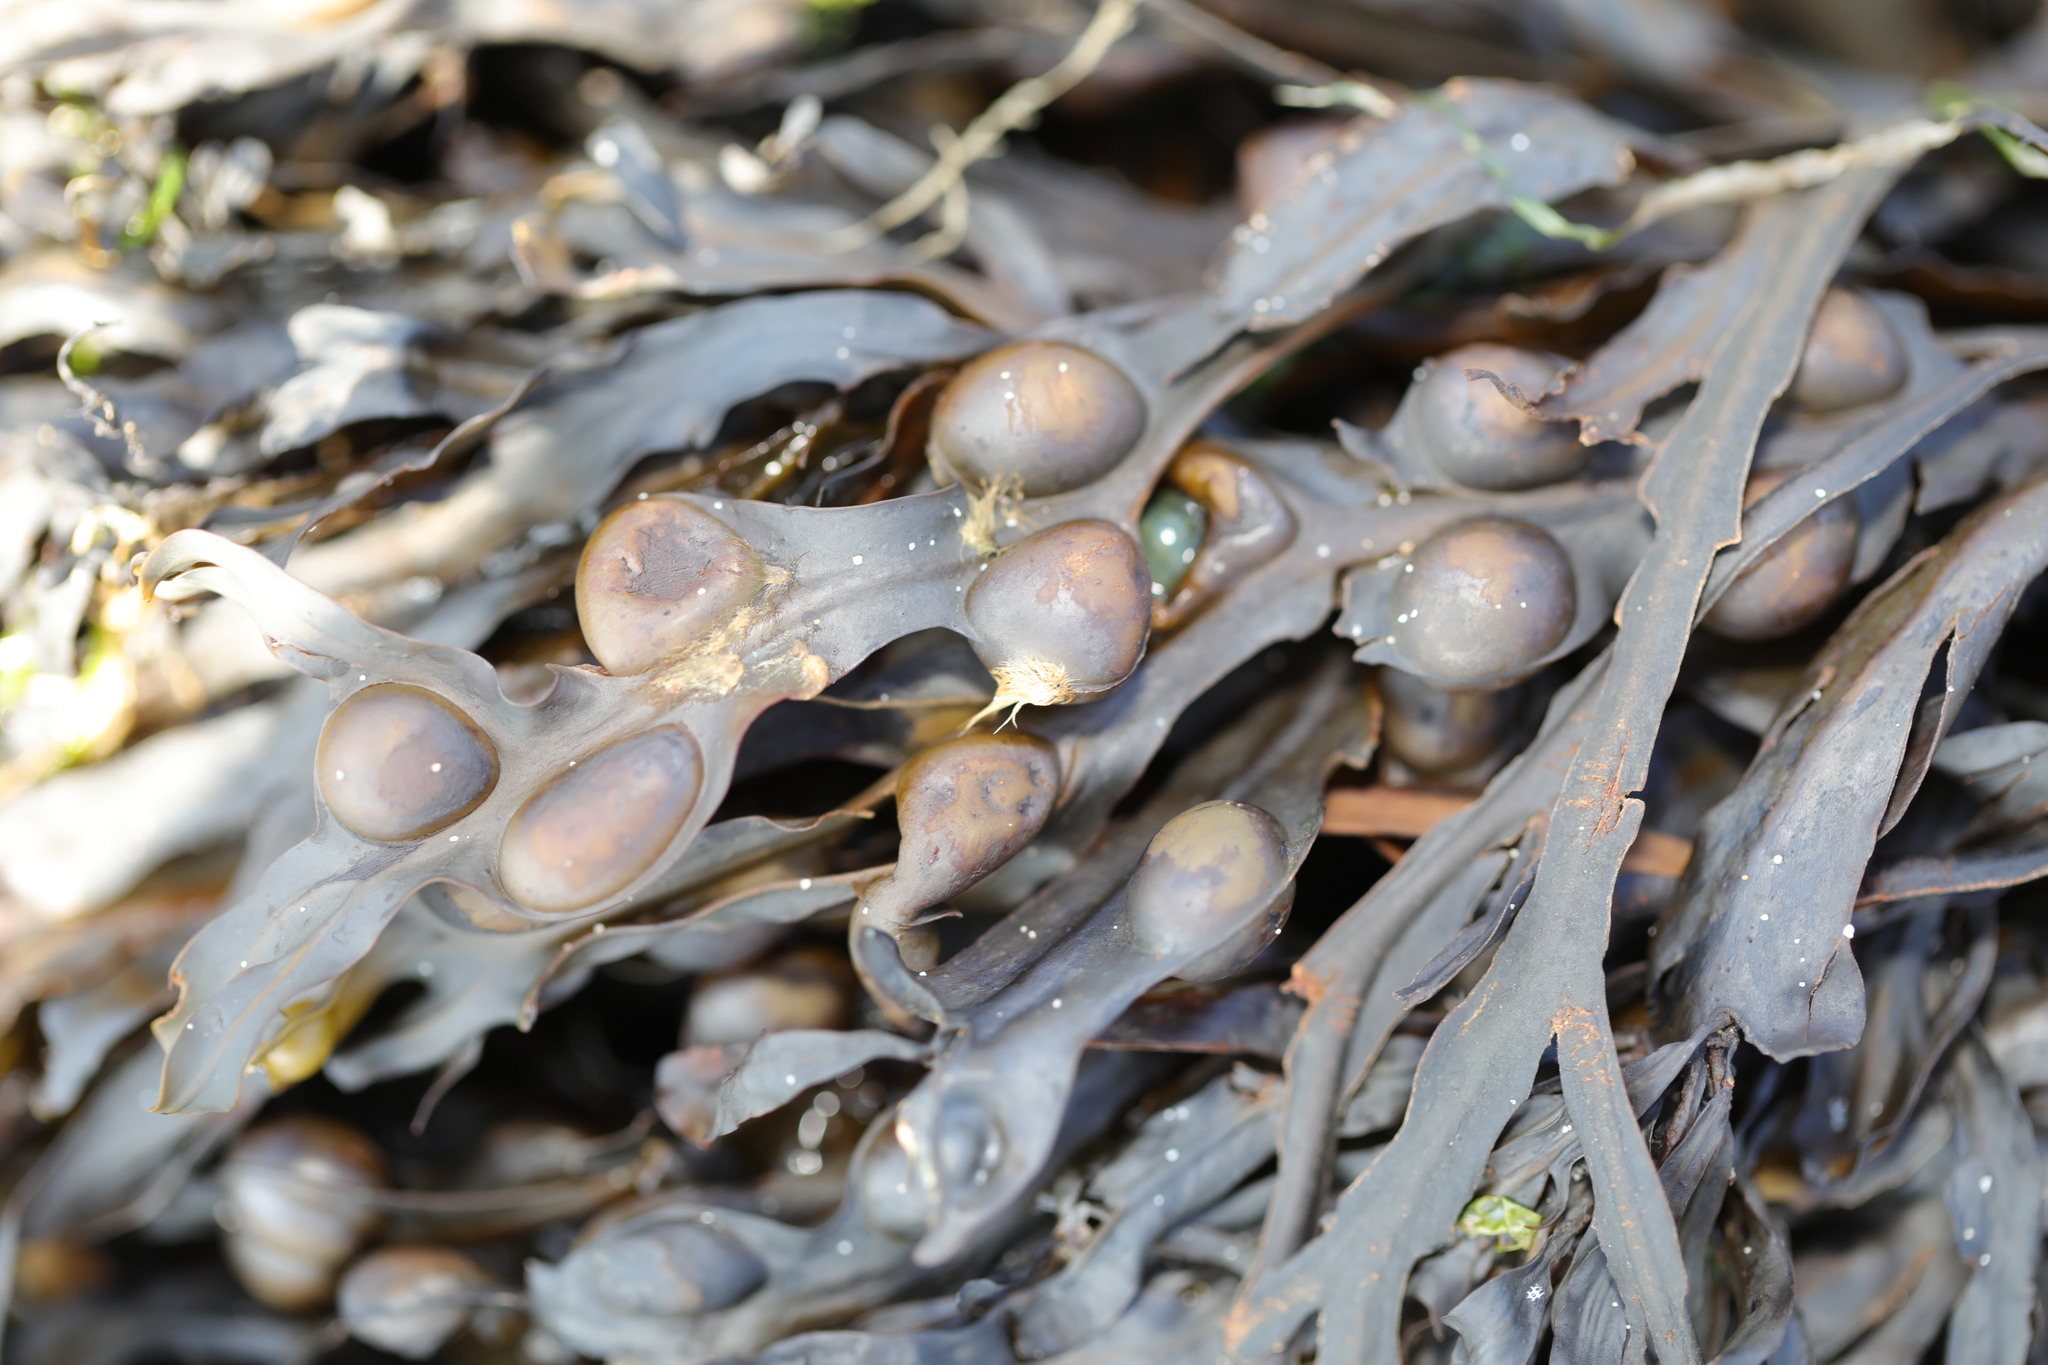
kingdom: Chromista
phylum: Ochrophyta
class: Phaeophyceae
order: Fucales
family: Fucaceae
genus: Fucus
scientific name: Fucus vesiculosus
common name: Bladder wrack
